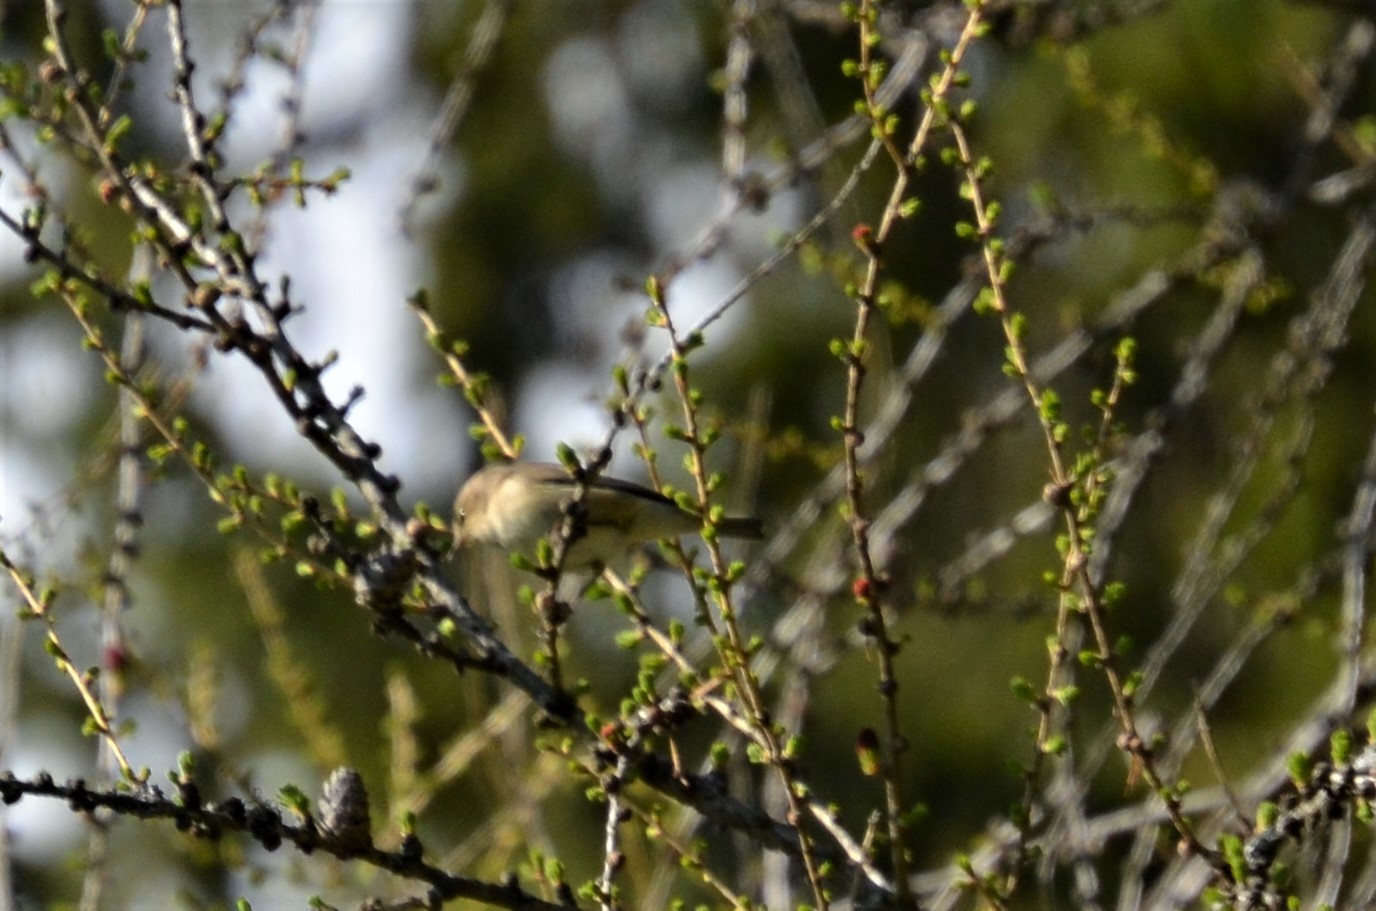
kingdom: Animalia
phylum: Chordata
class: Aves
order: Passeriformes
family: Phylloscopidae
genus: Phylloscopus
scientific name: Phylloscopus collybita
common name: Common chiffchaff
